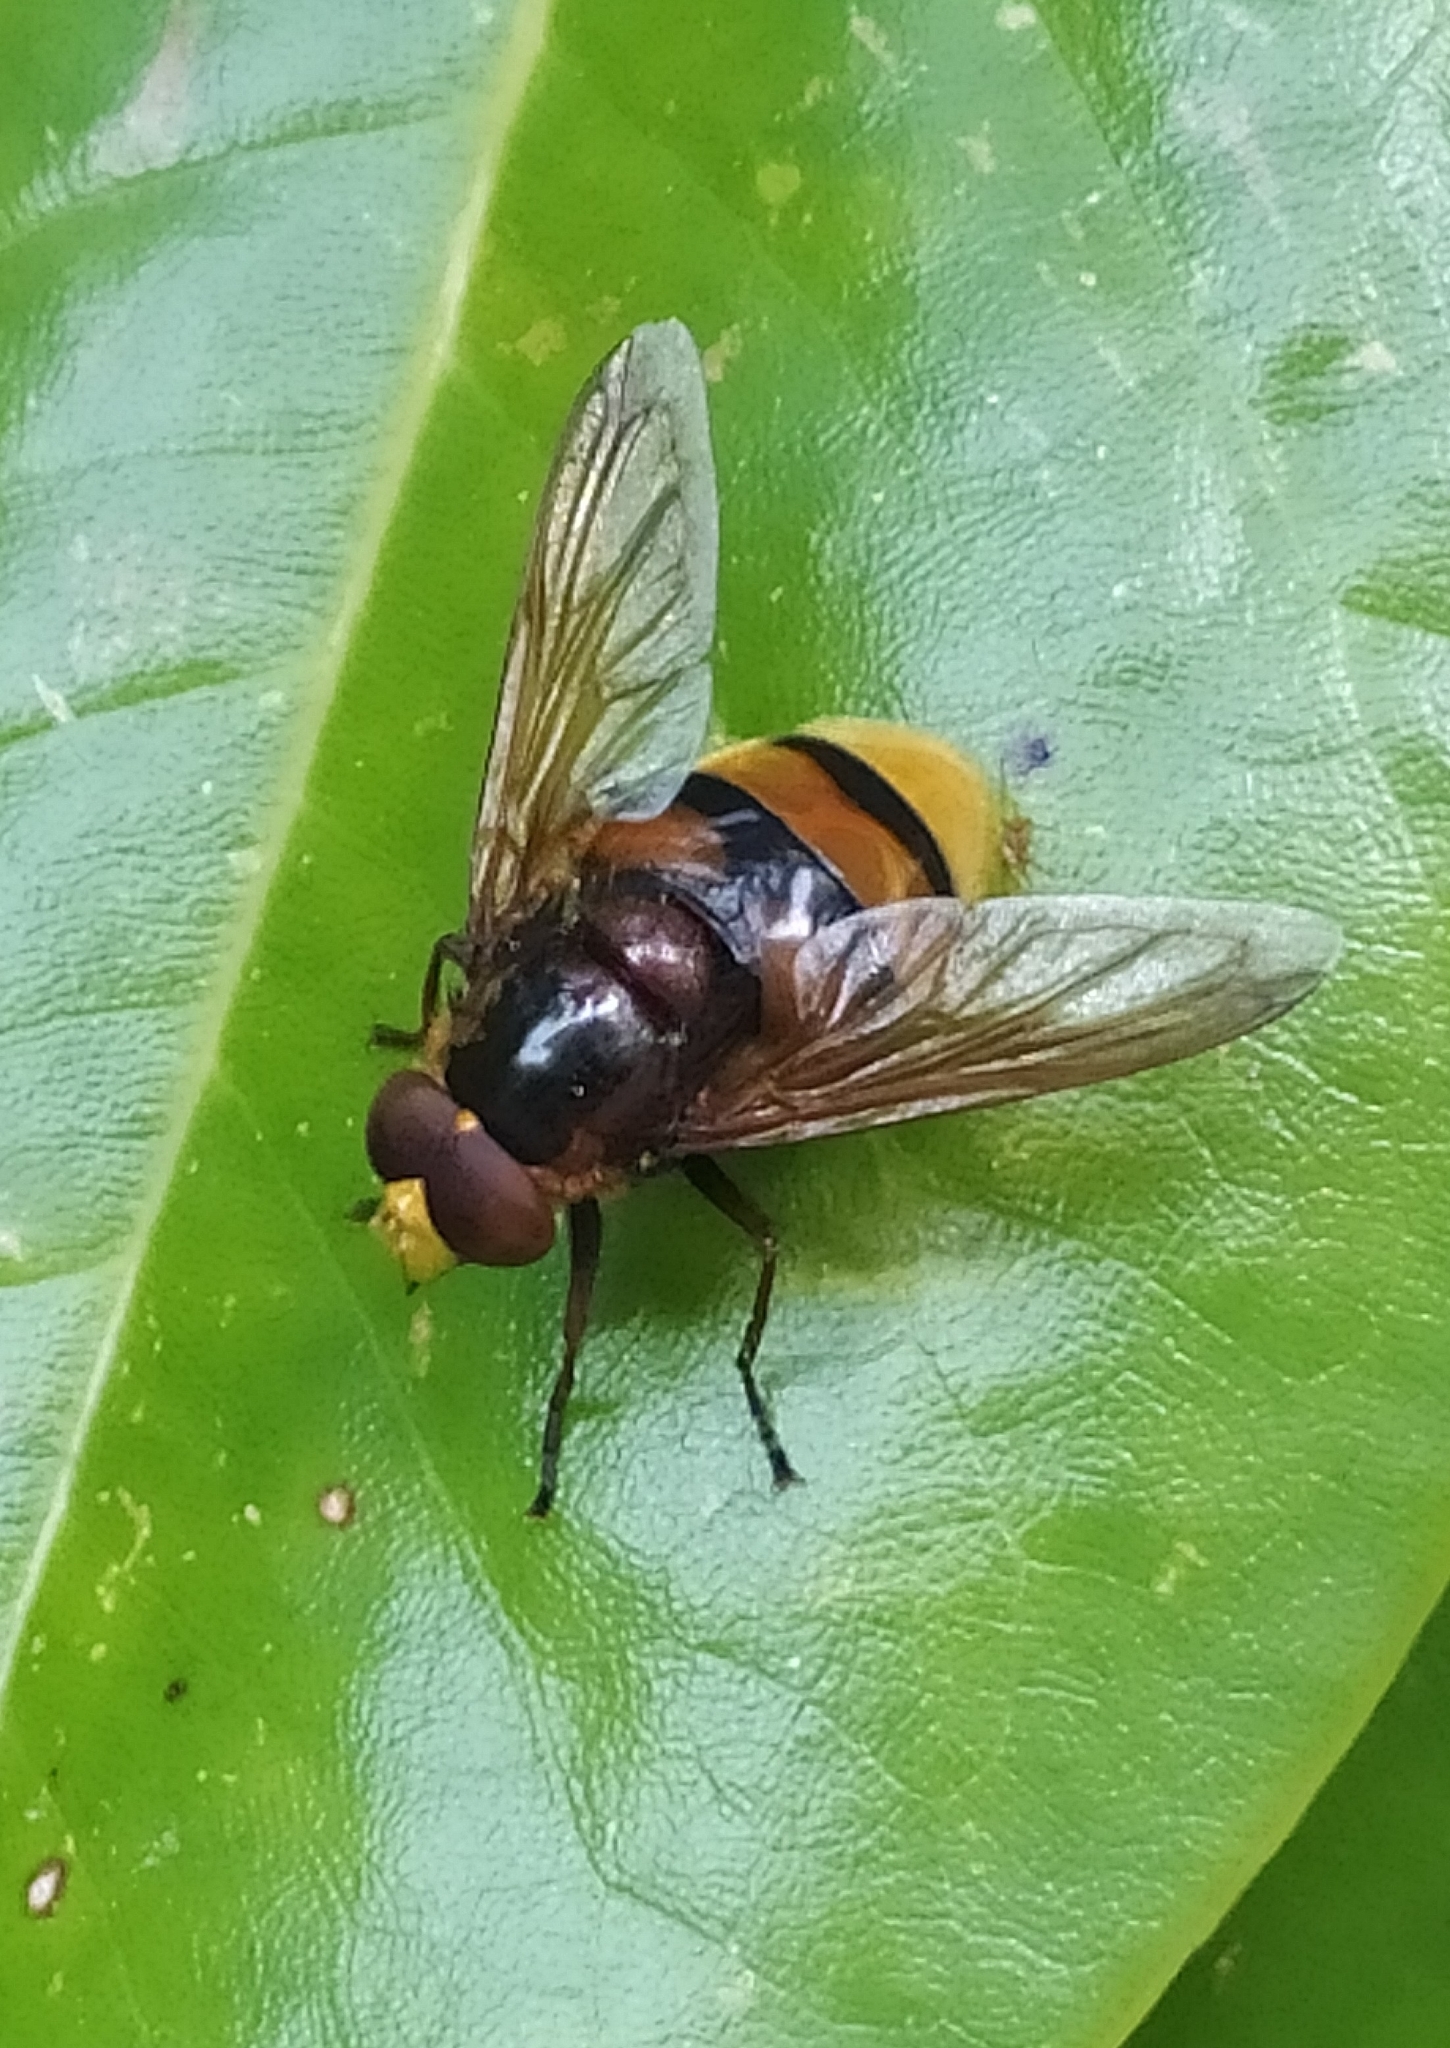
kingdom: Animalia
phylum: Arthropoda
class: Insecta
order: Diptera
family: Syrphidae
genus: Volucella
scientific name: Volucella zonaria
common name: Hornet hoverfly
